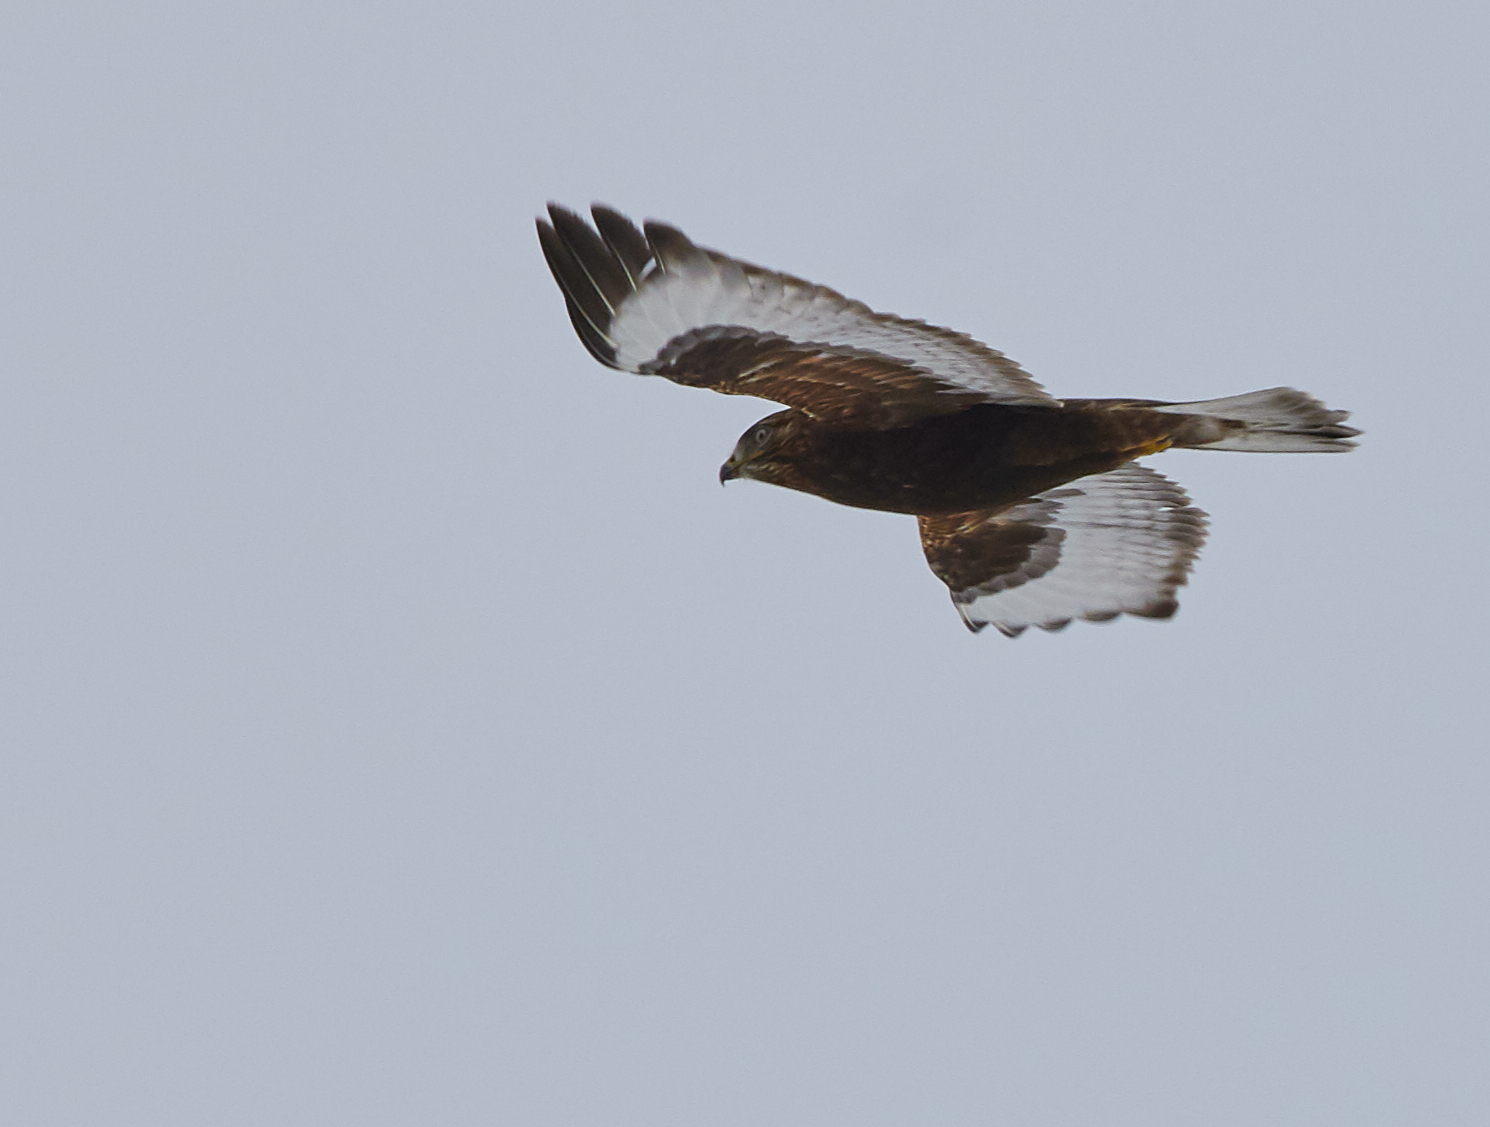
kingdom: Animalia
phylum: Chordata
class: Aves
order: Accipitriformes
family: Accipitridae
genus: Buteo
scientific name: Buteo lagopus
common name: Rough-legged buzzard
